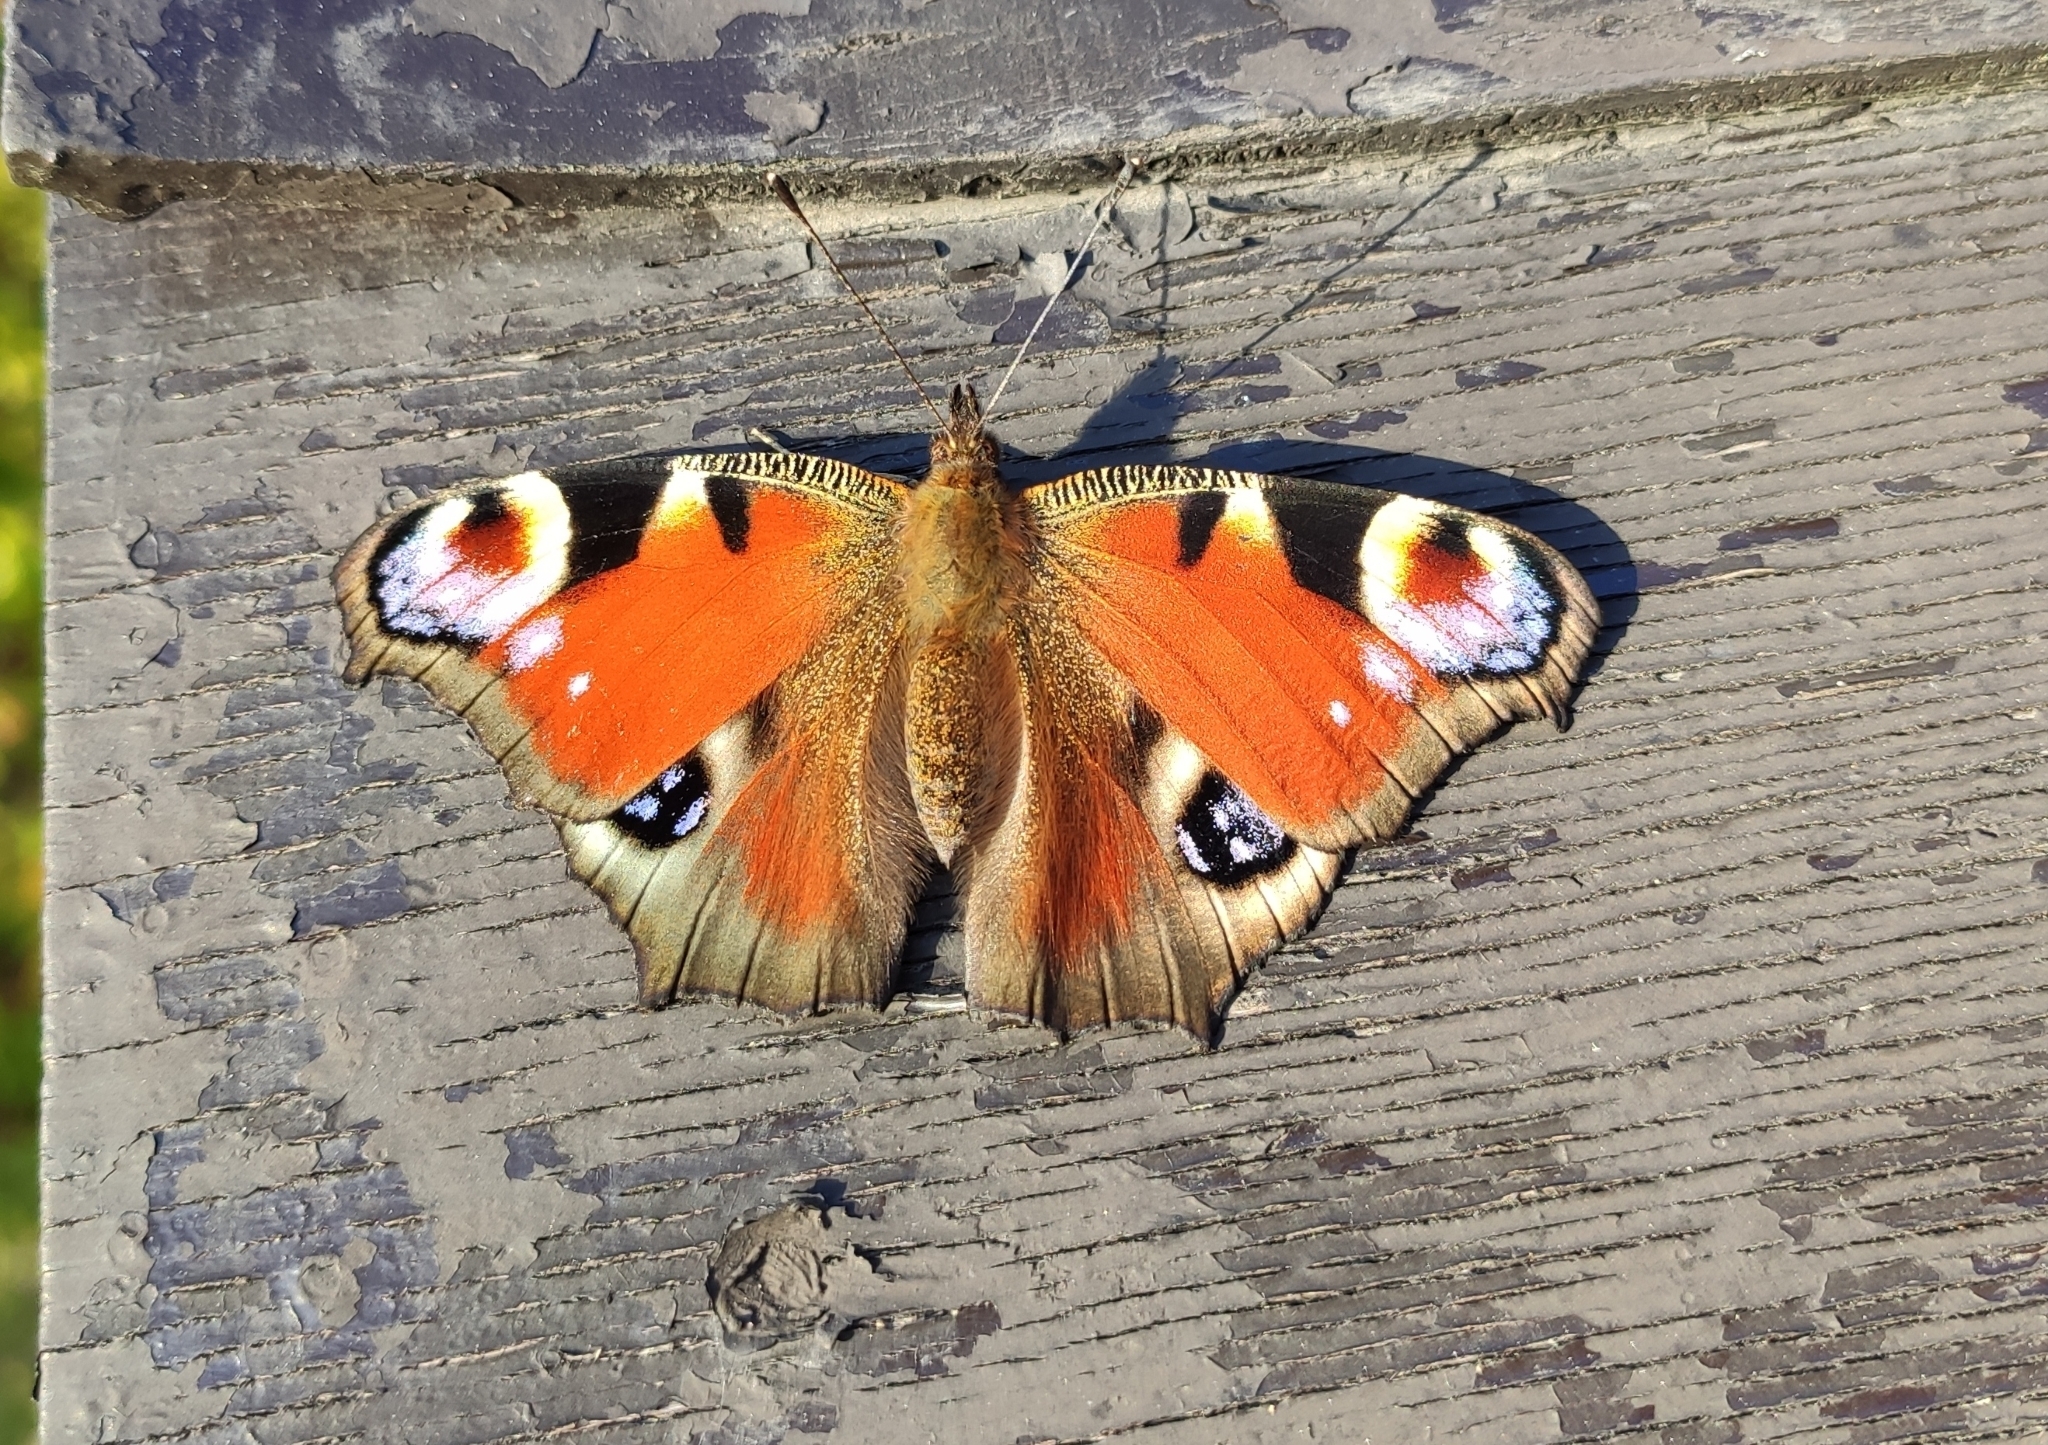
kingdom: Animalia
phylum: Arthropoda
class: Insecta
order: Lepidoptera
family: Nymphalidae
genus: Aglais
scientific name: Aglais io
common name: Peacock
